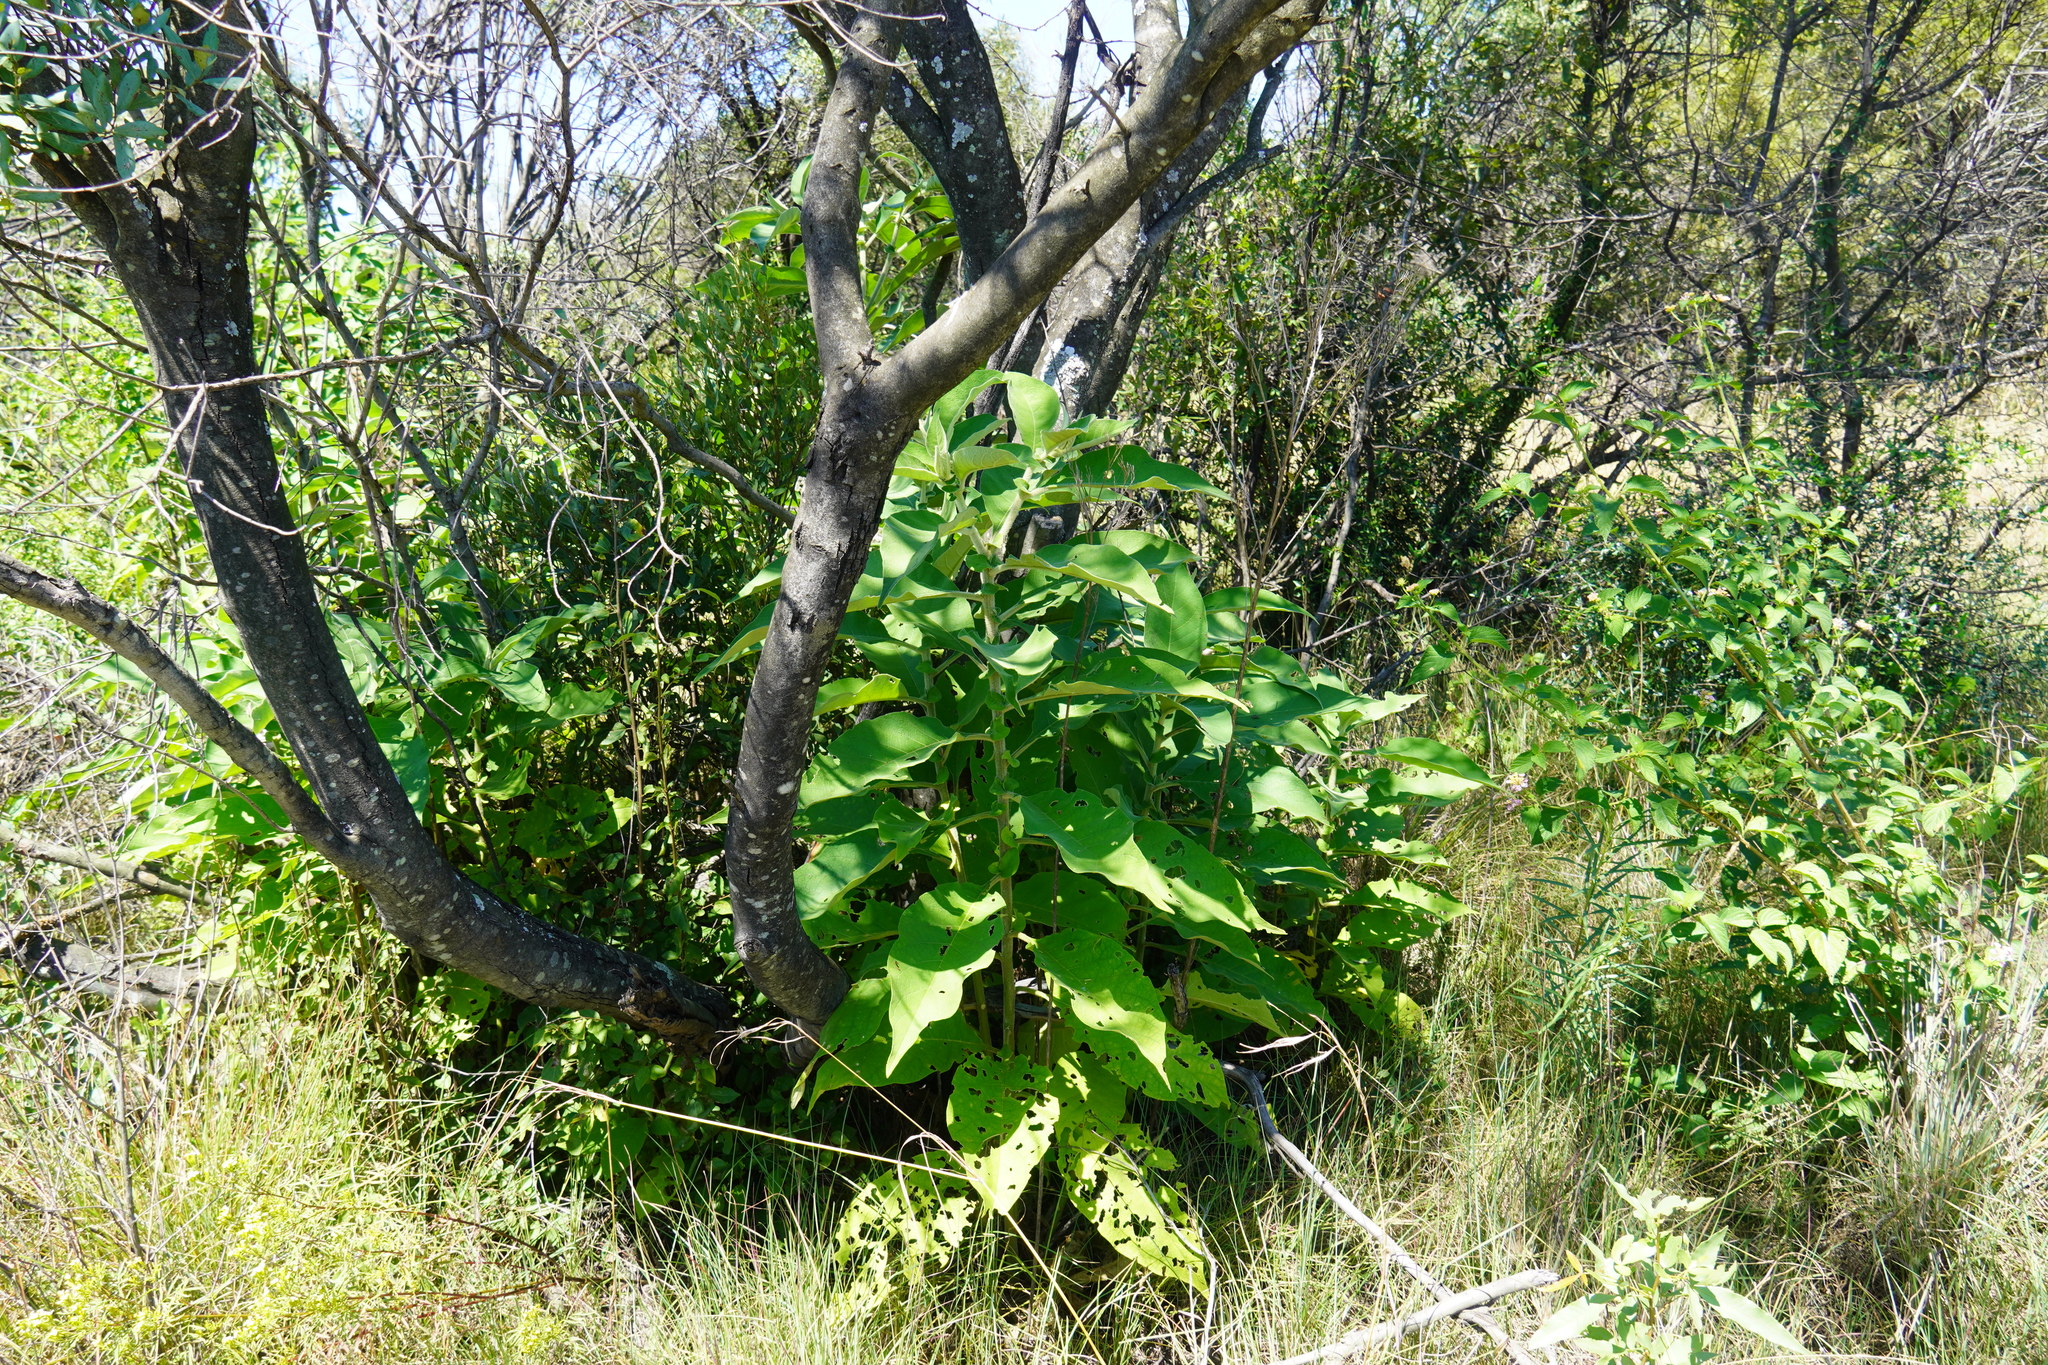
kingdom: Plantae
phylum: Tracheophyta
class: Magnoliopsida
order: Solanales
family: Solanaceae
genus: Solanum
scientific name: Solanum mauritianum
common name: Earleaf nightshade
